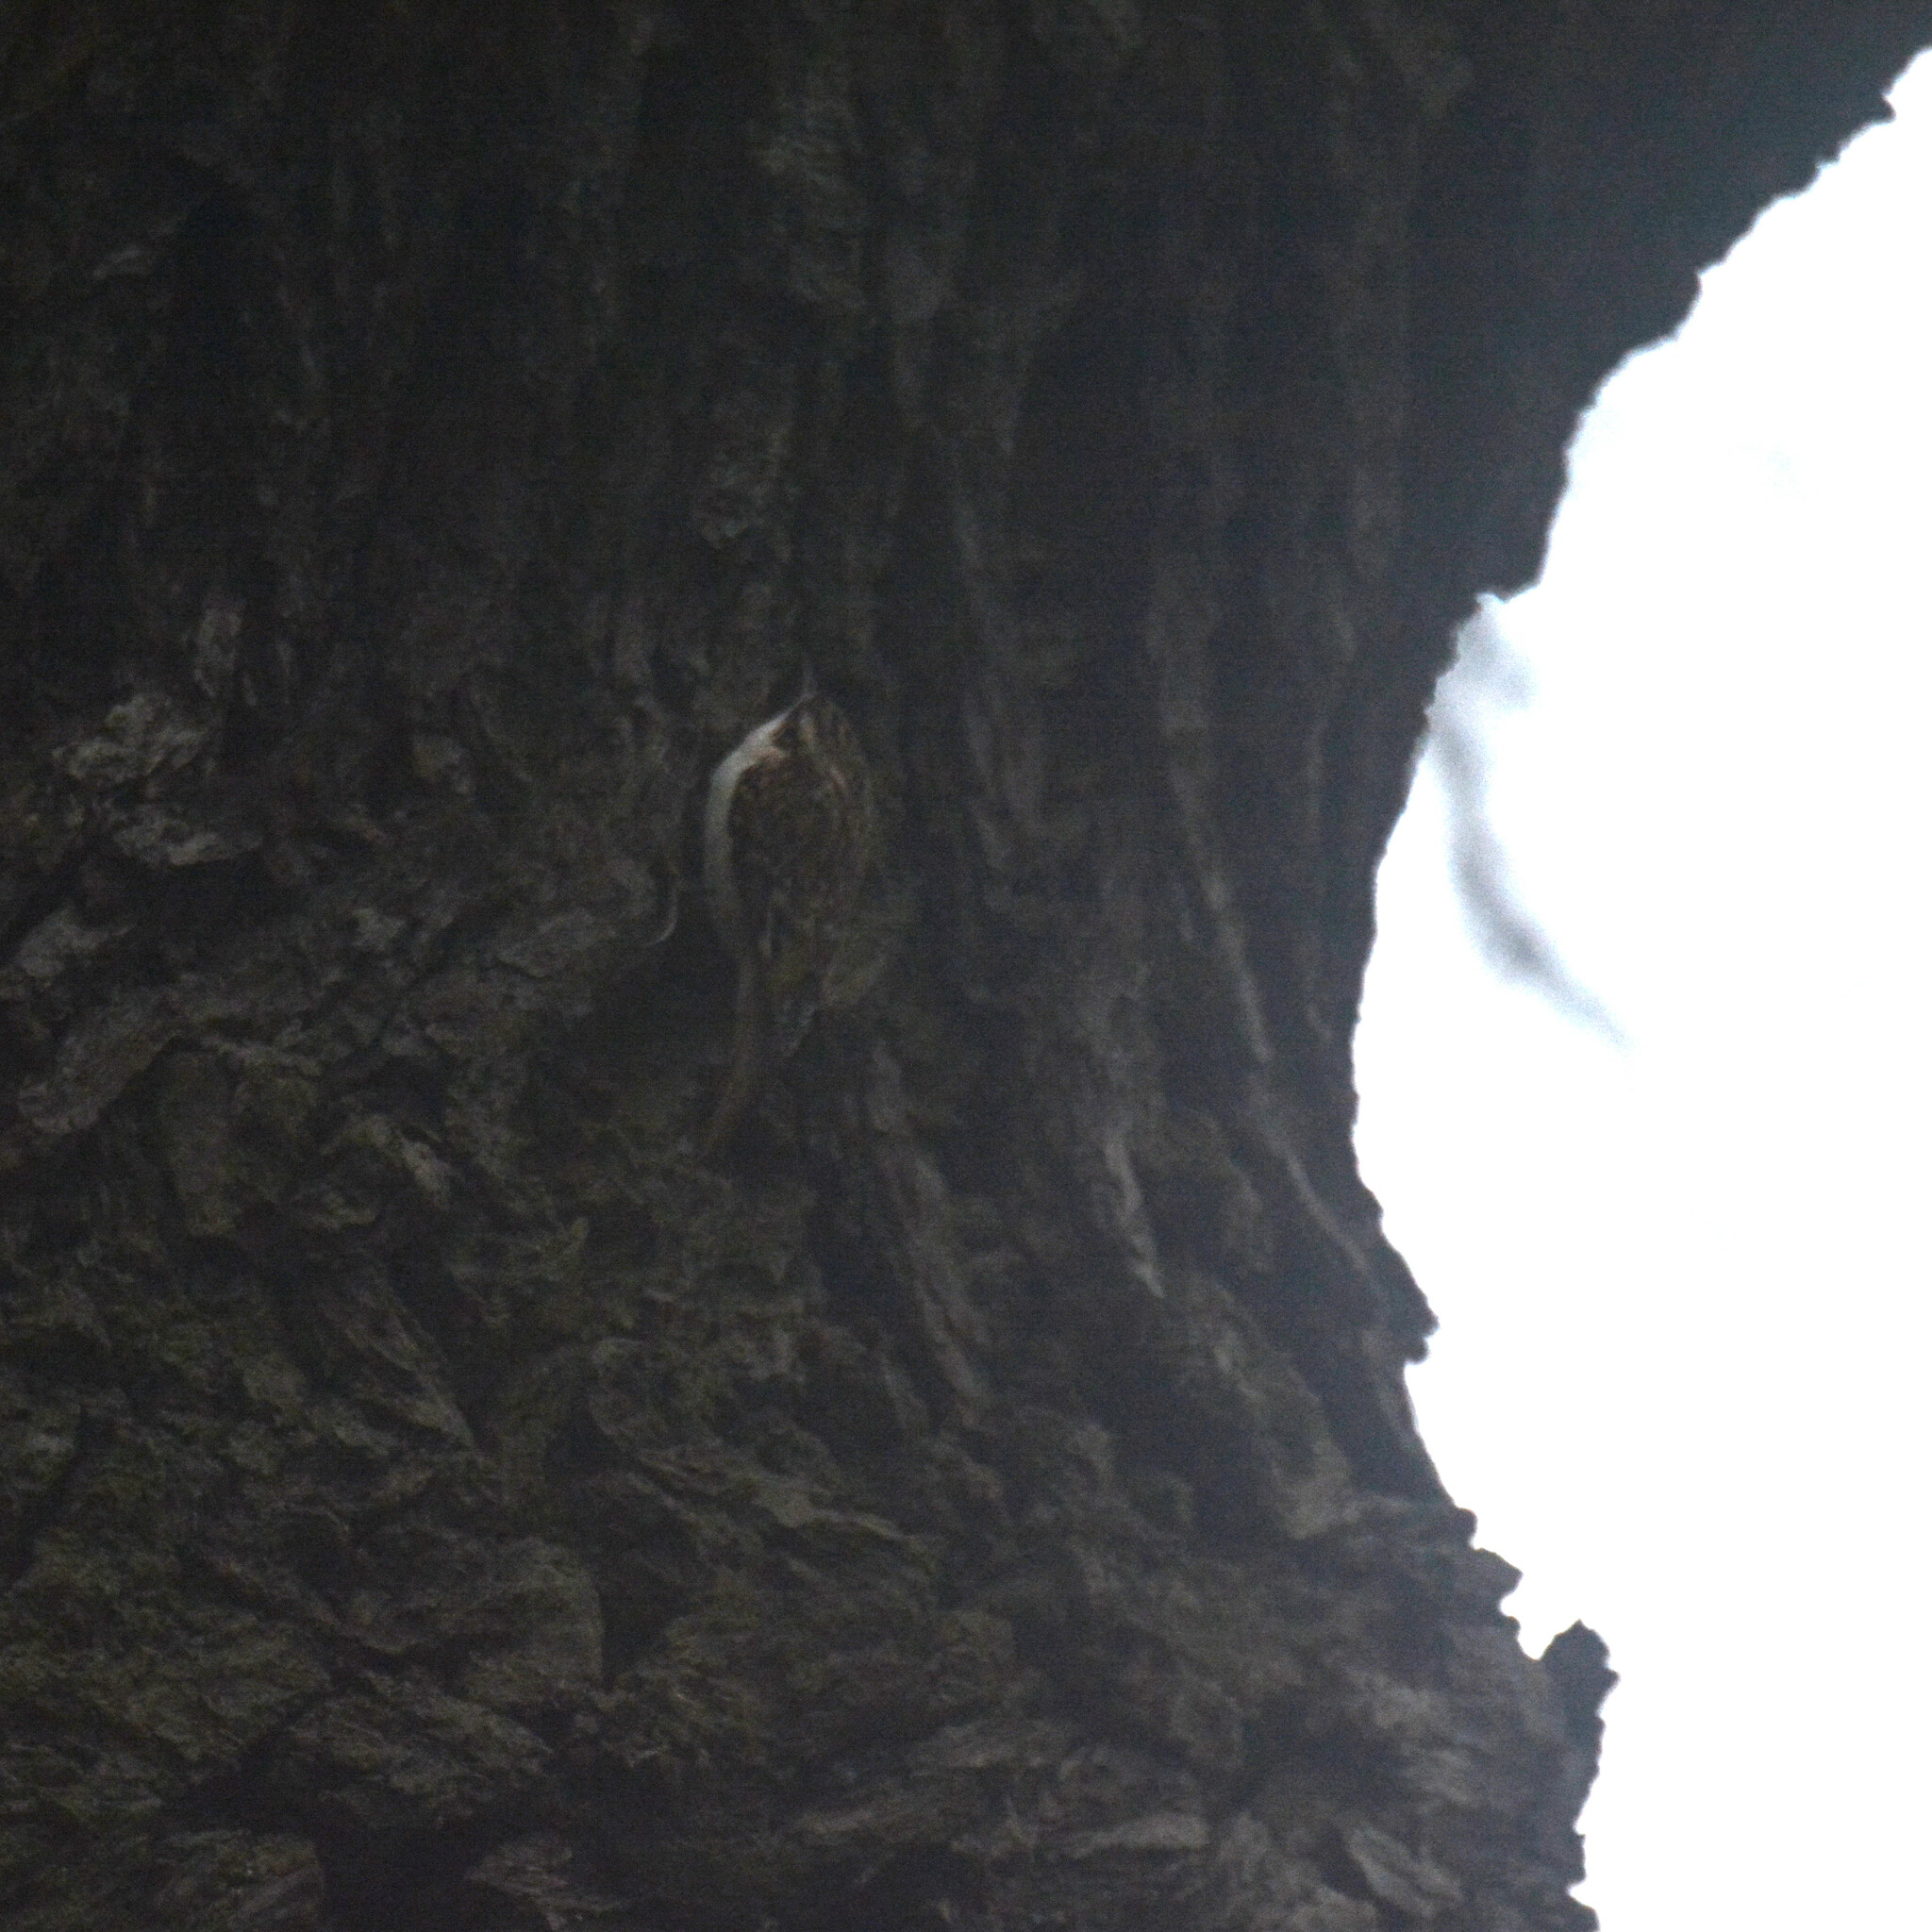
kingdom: Animalia
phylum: Chordata
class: Aves
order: Passeriformes
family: Certhiidae
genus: Certhia
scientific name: Certhia familiaris
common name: Eurasian treecreeper
